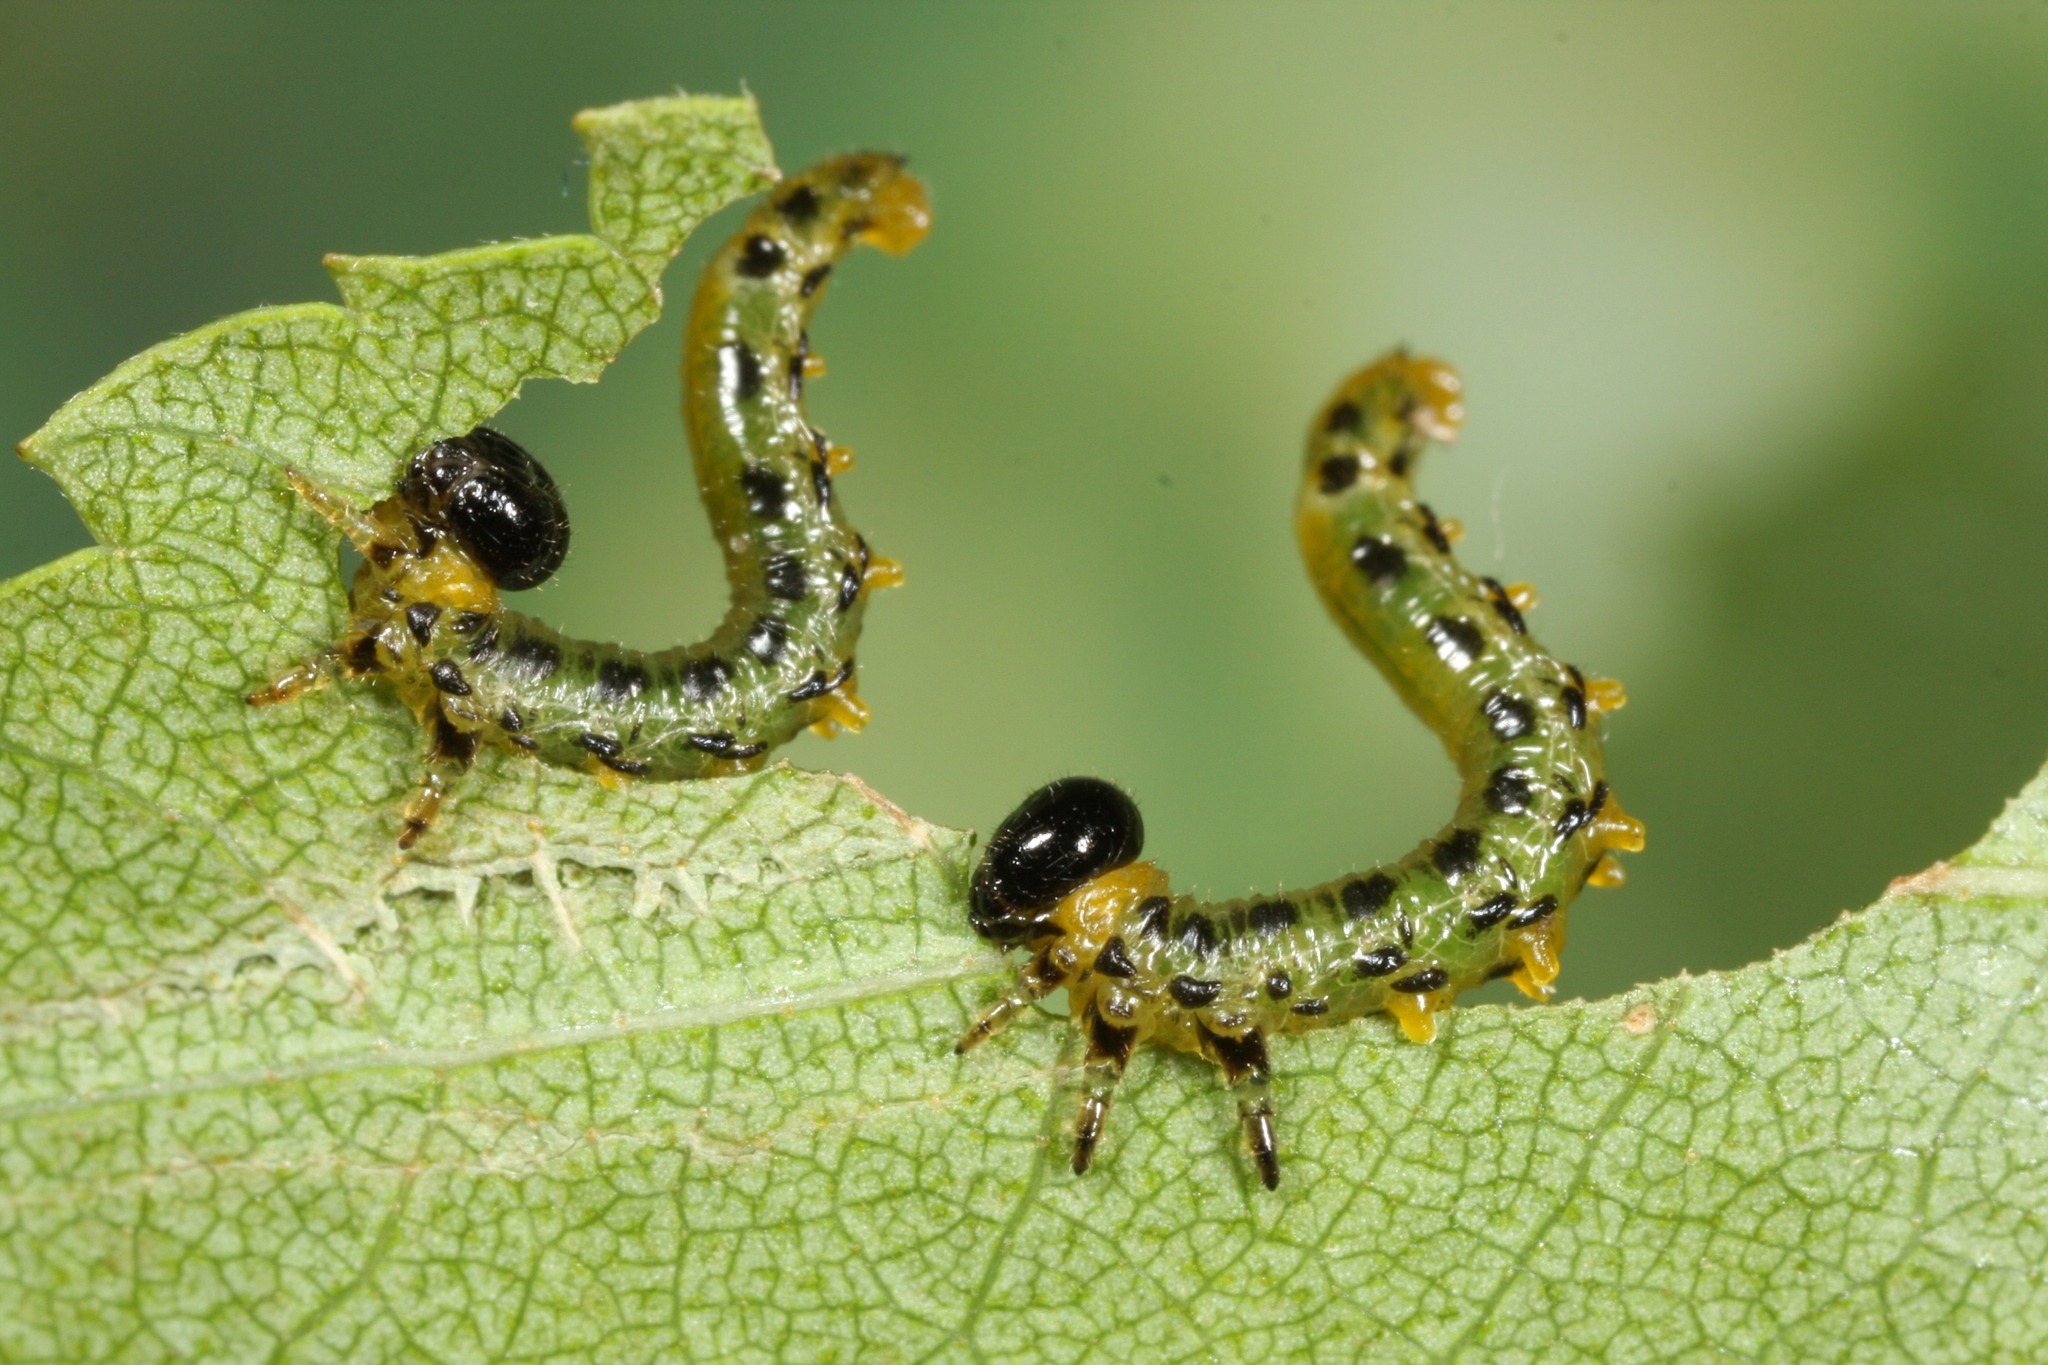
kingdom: Animalia
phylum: Arthropoda
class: Insecta
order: Hymenoptera
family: Tenthredinidae
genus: Craesus
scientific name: Craesus septentrionalis
